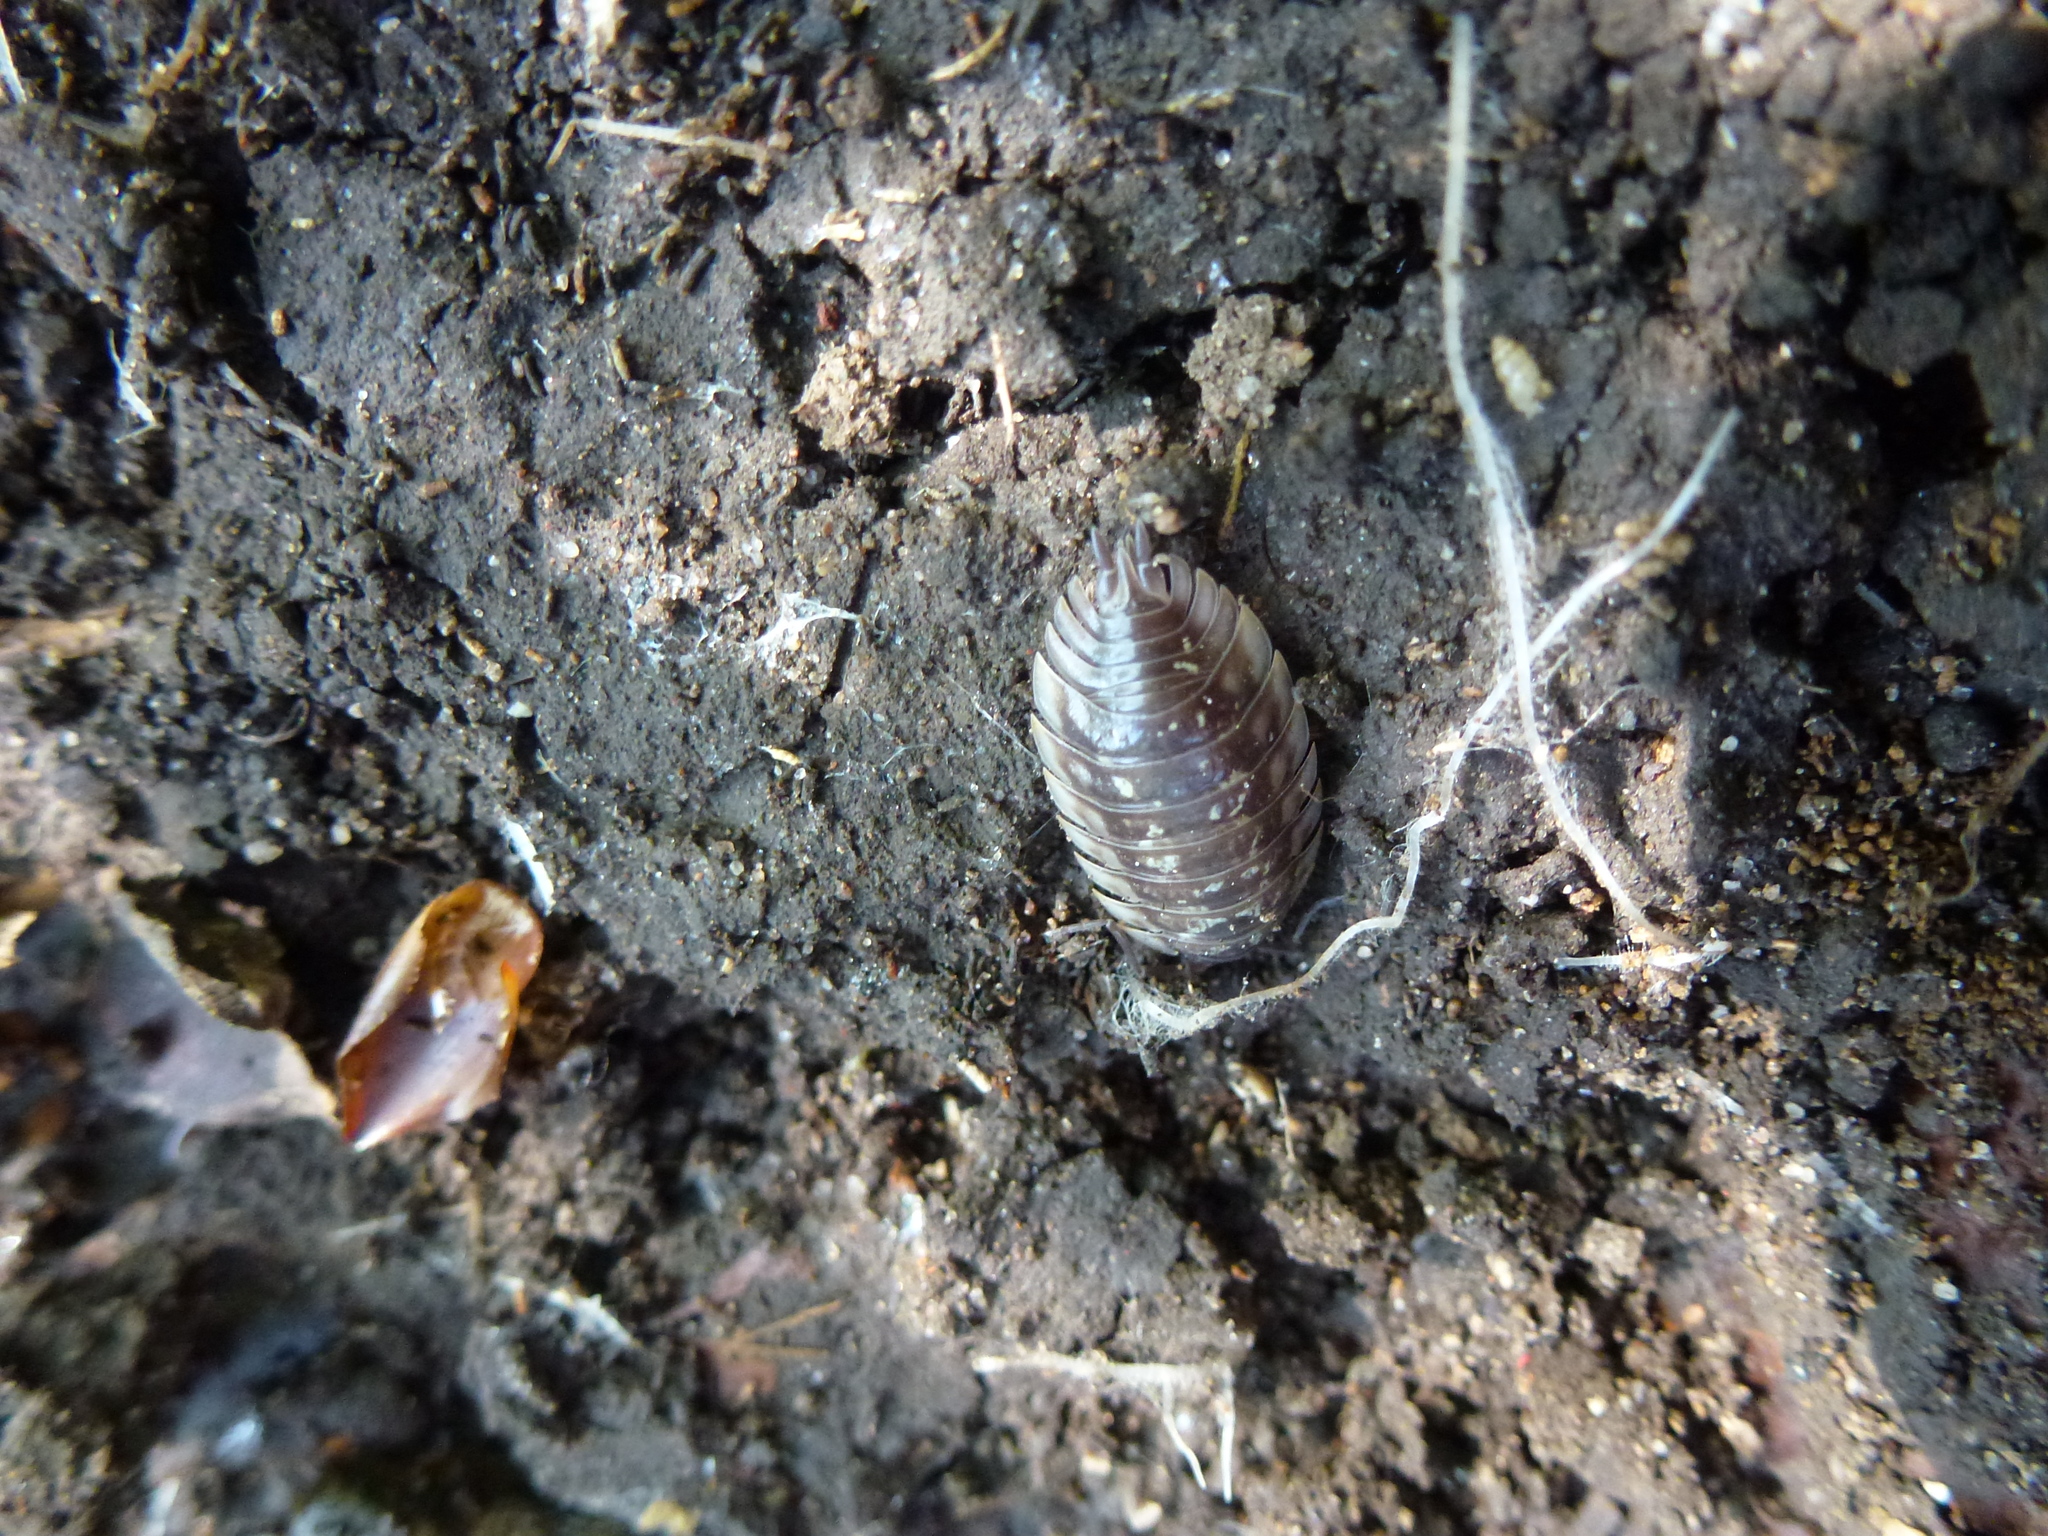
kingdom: Animalia
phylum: Arthropoda
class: Malacostraca
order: Isopoda
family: Oniscidae
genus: Oniscus
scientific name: Oniscus asellus
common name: Common shiny woodlouse
